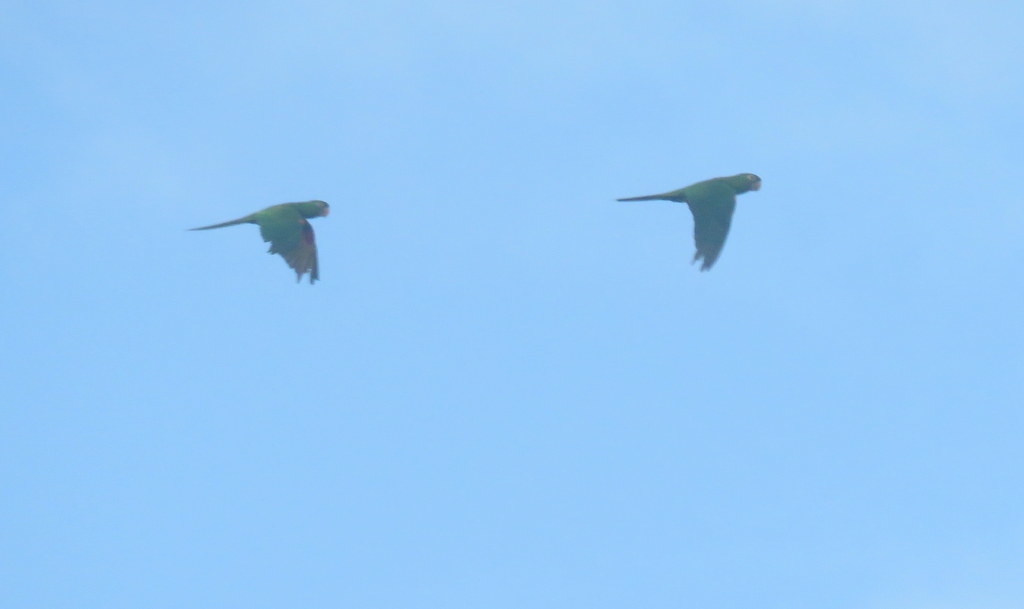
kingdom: Animalia
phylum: Chordata
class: Aves
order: Psittaciformes
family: Psittacidae
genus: Aratinga
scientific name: Aratinga leucophthalma
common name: White-eyed parakeet
